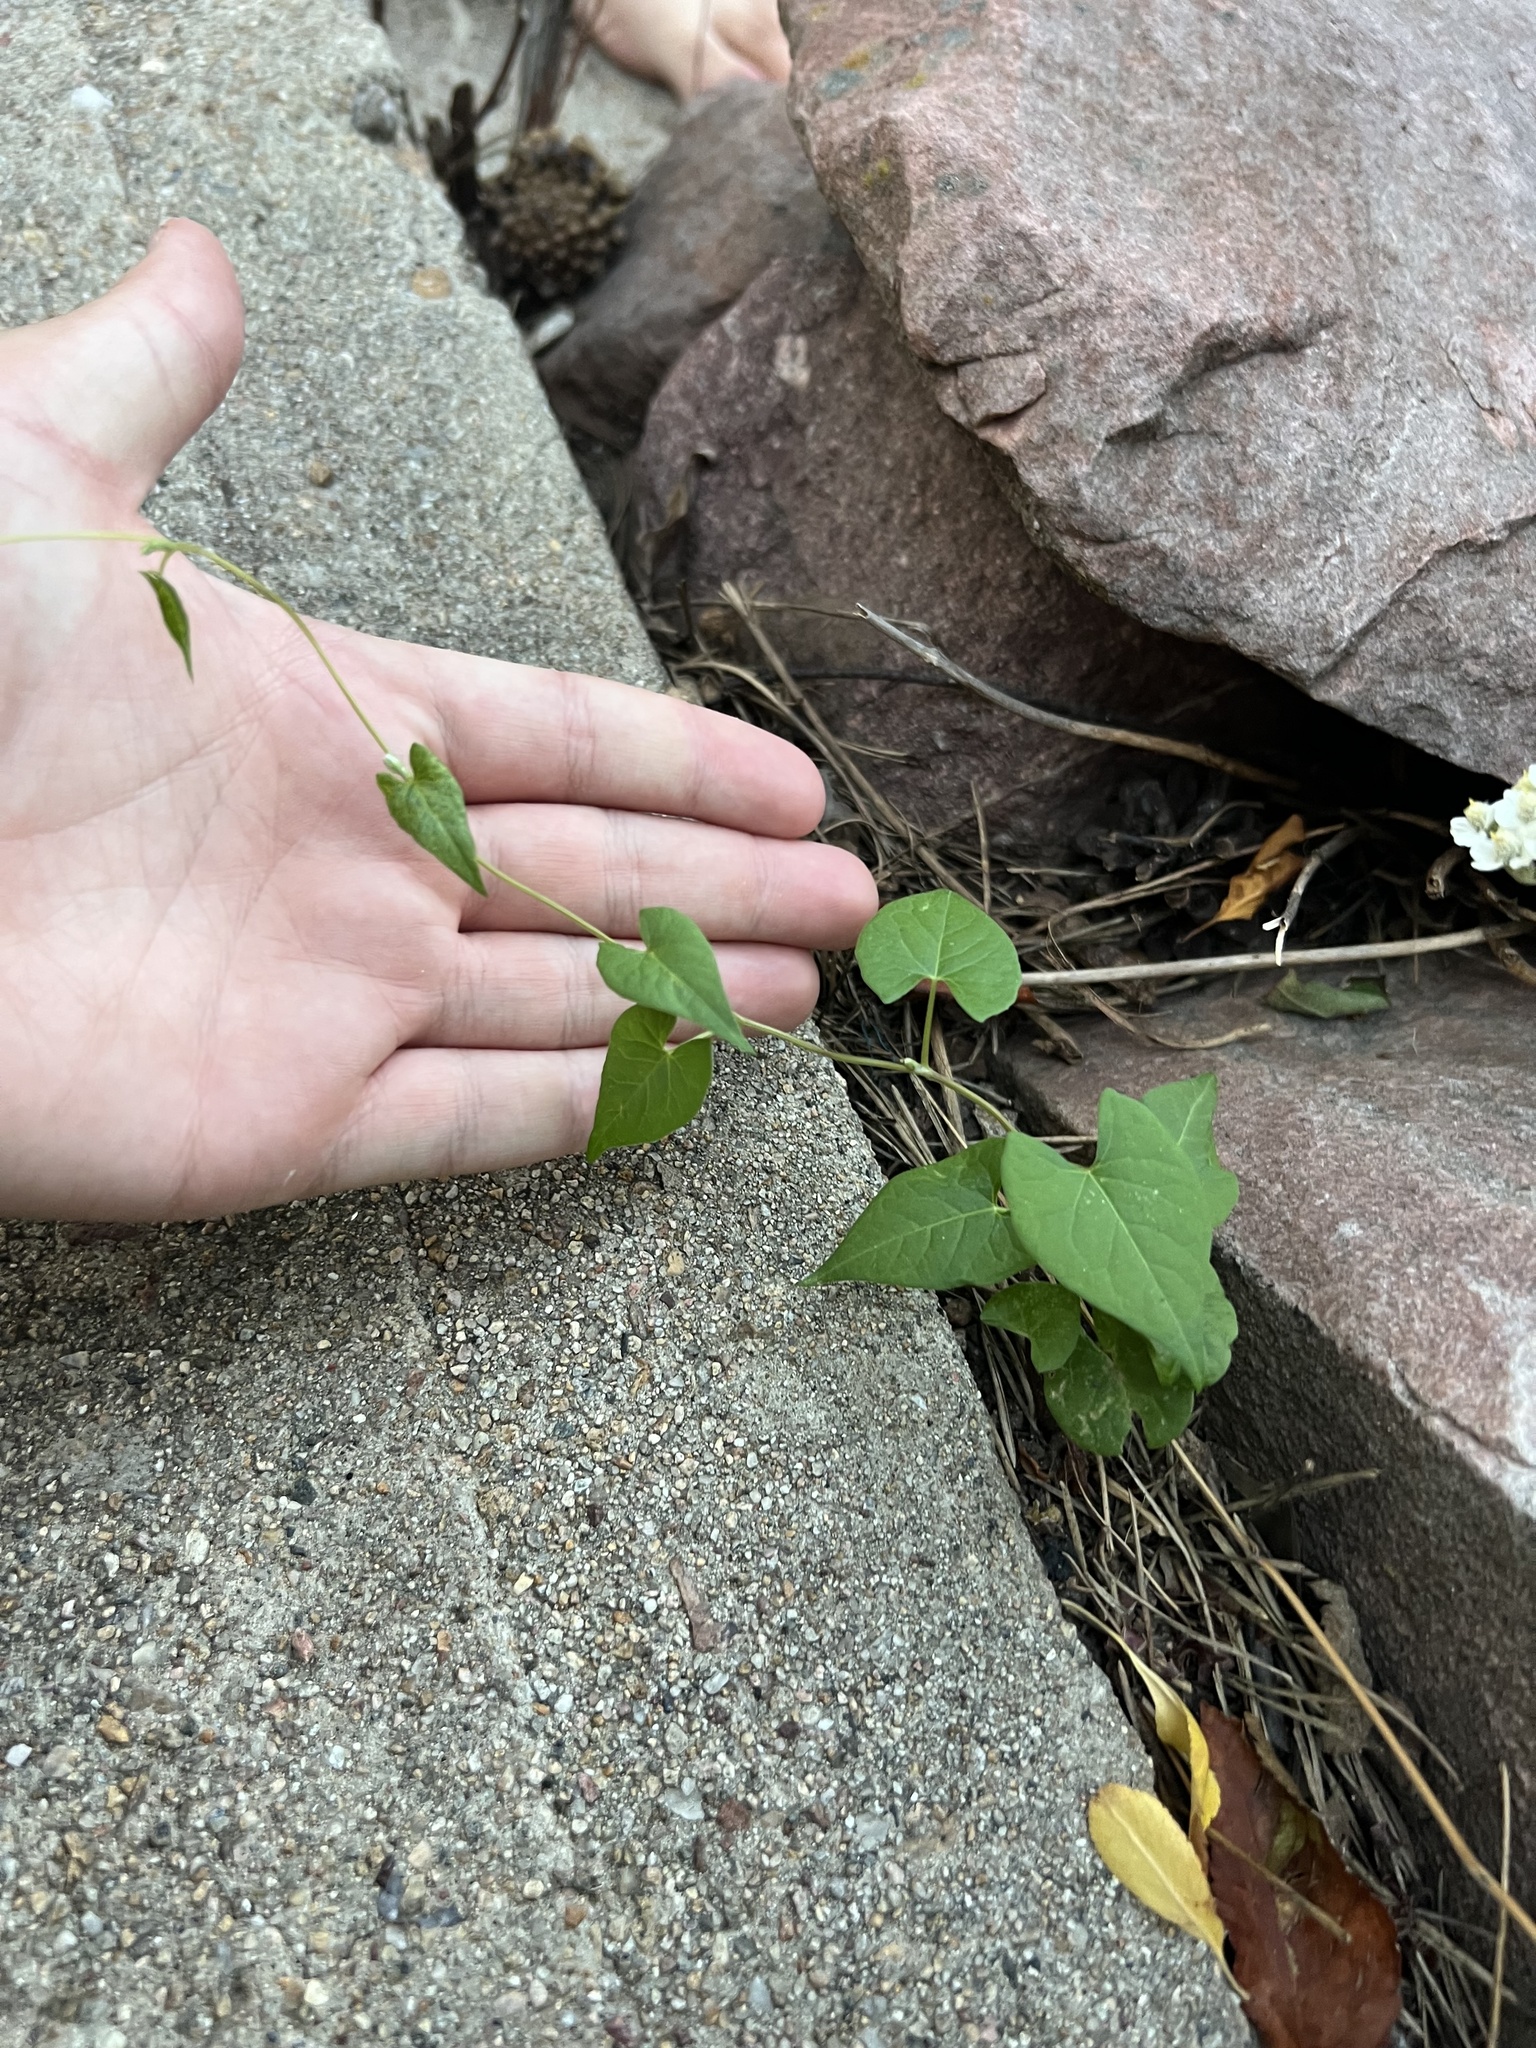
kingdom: Plantae
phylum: Tracheophyta
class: Magnoliopsida
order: Caryophyllales
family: Polygonaceae
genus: Fallopia
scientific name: Fallopia convolvulus
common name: Black bindweed
